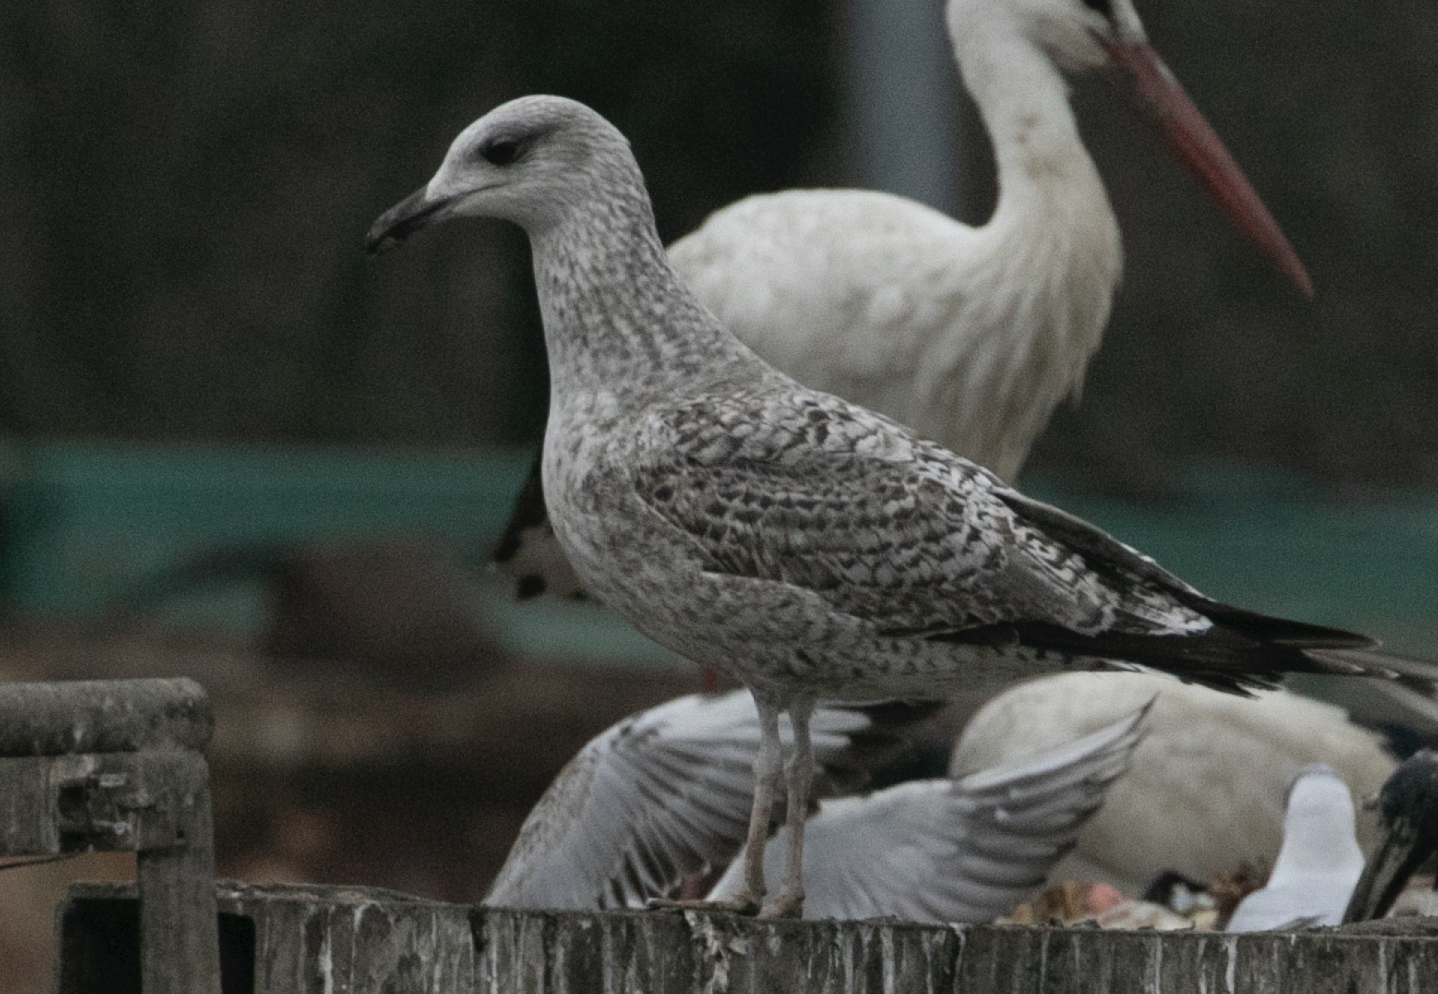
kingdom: Animalia
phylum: Chordata
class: Aves
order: Charadriiformes
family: Laridae
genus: Larus
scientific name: Larus michahellis
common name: Yellow-legged gull
